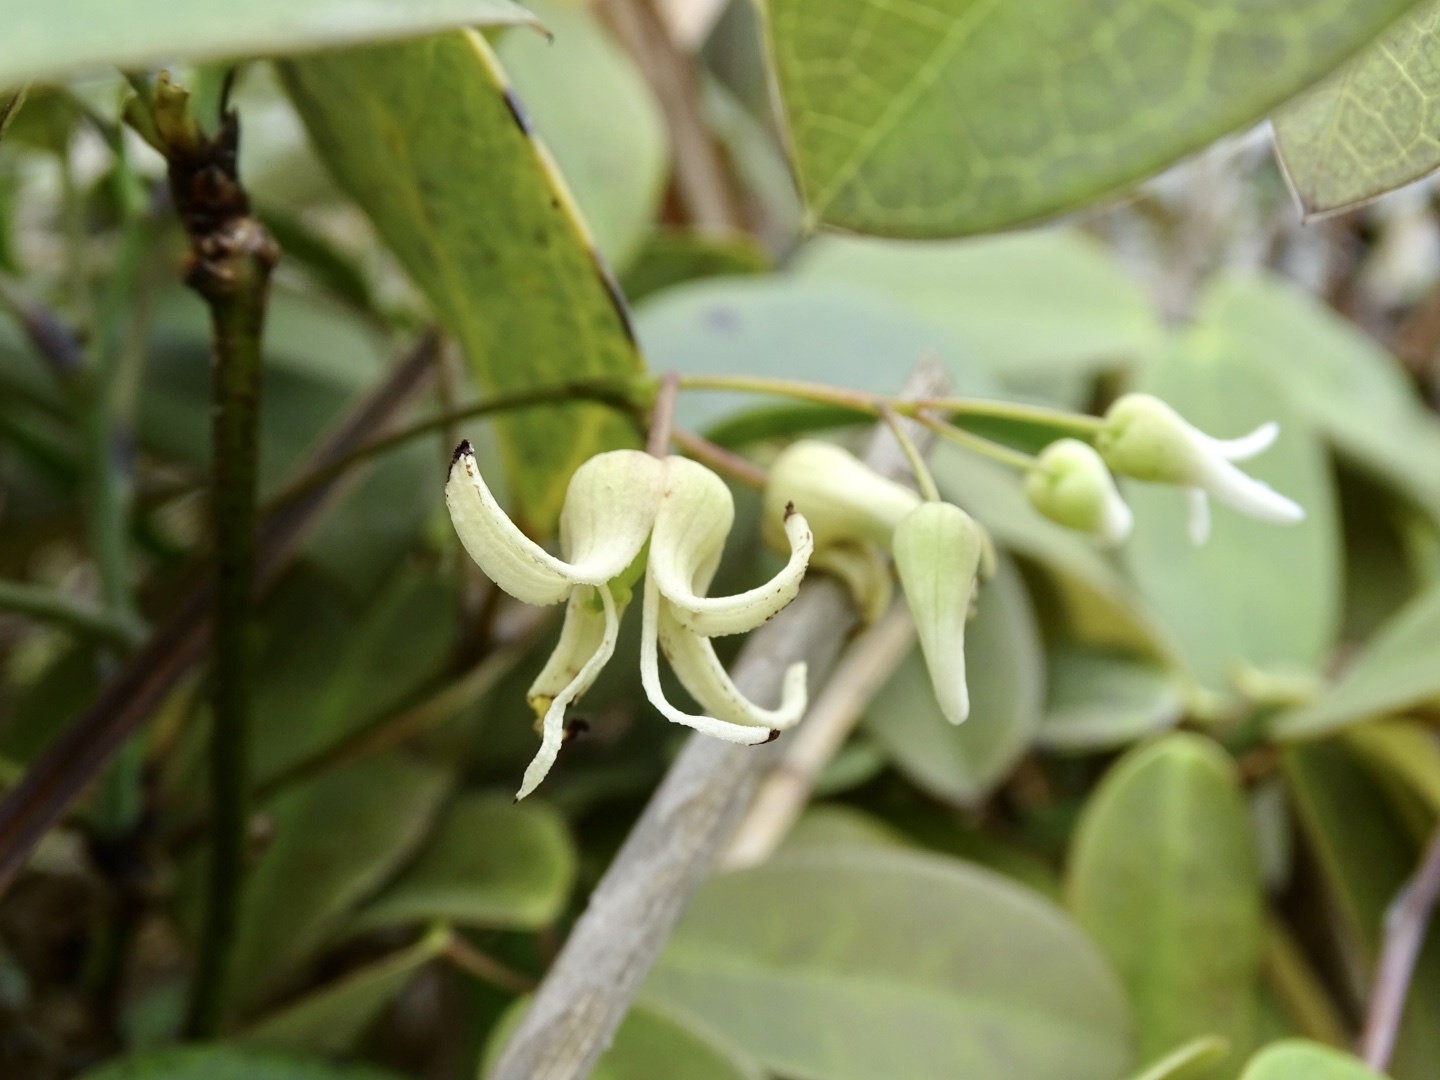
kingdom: Plantae
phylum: Tracheophyta
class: Magnoliopsida
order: Ranunculales
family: Lardizabalaceae
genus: Stauntonia
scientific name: Stauntonia obovata
